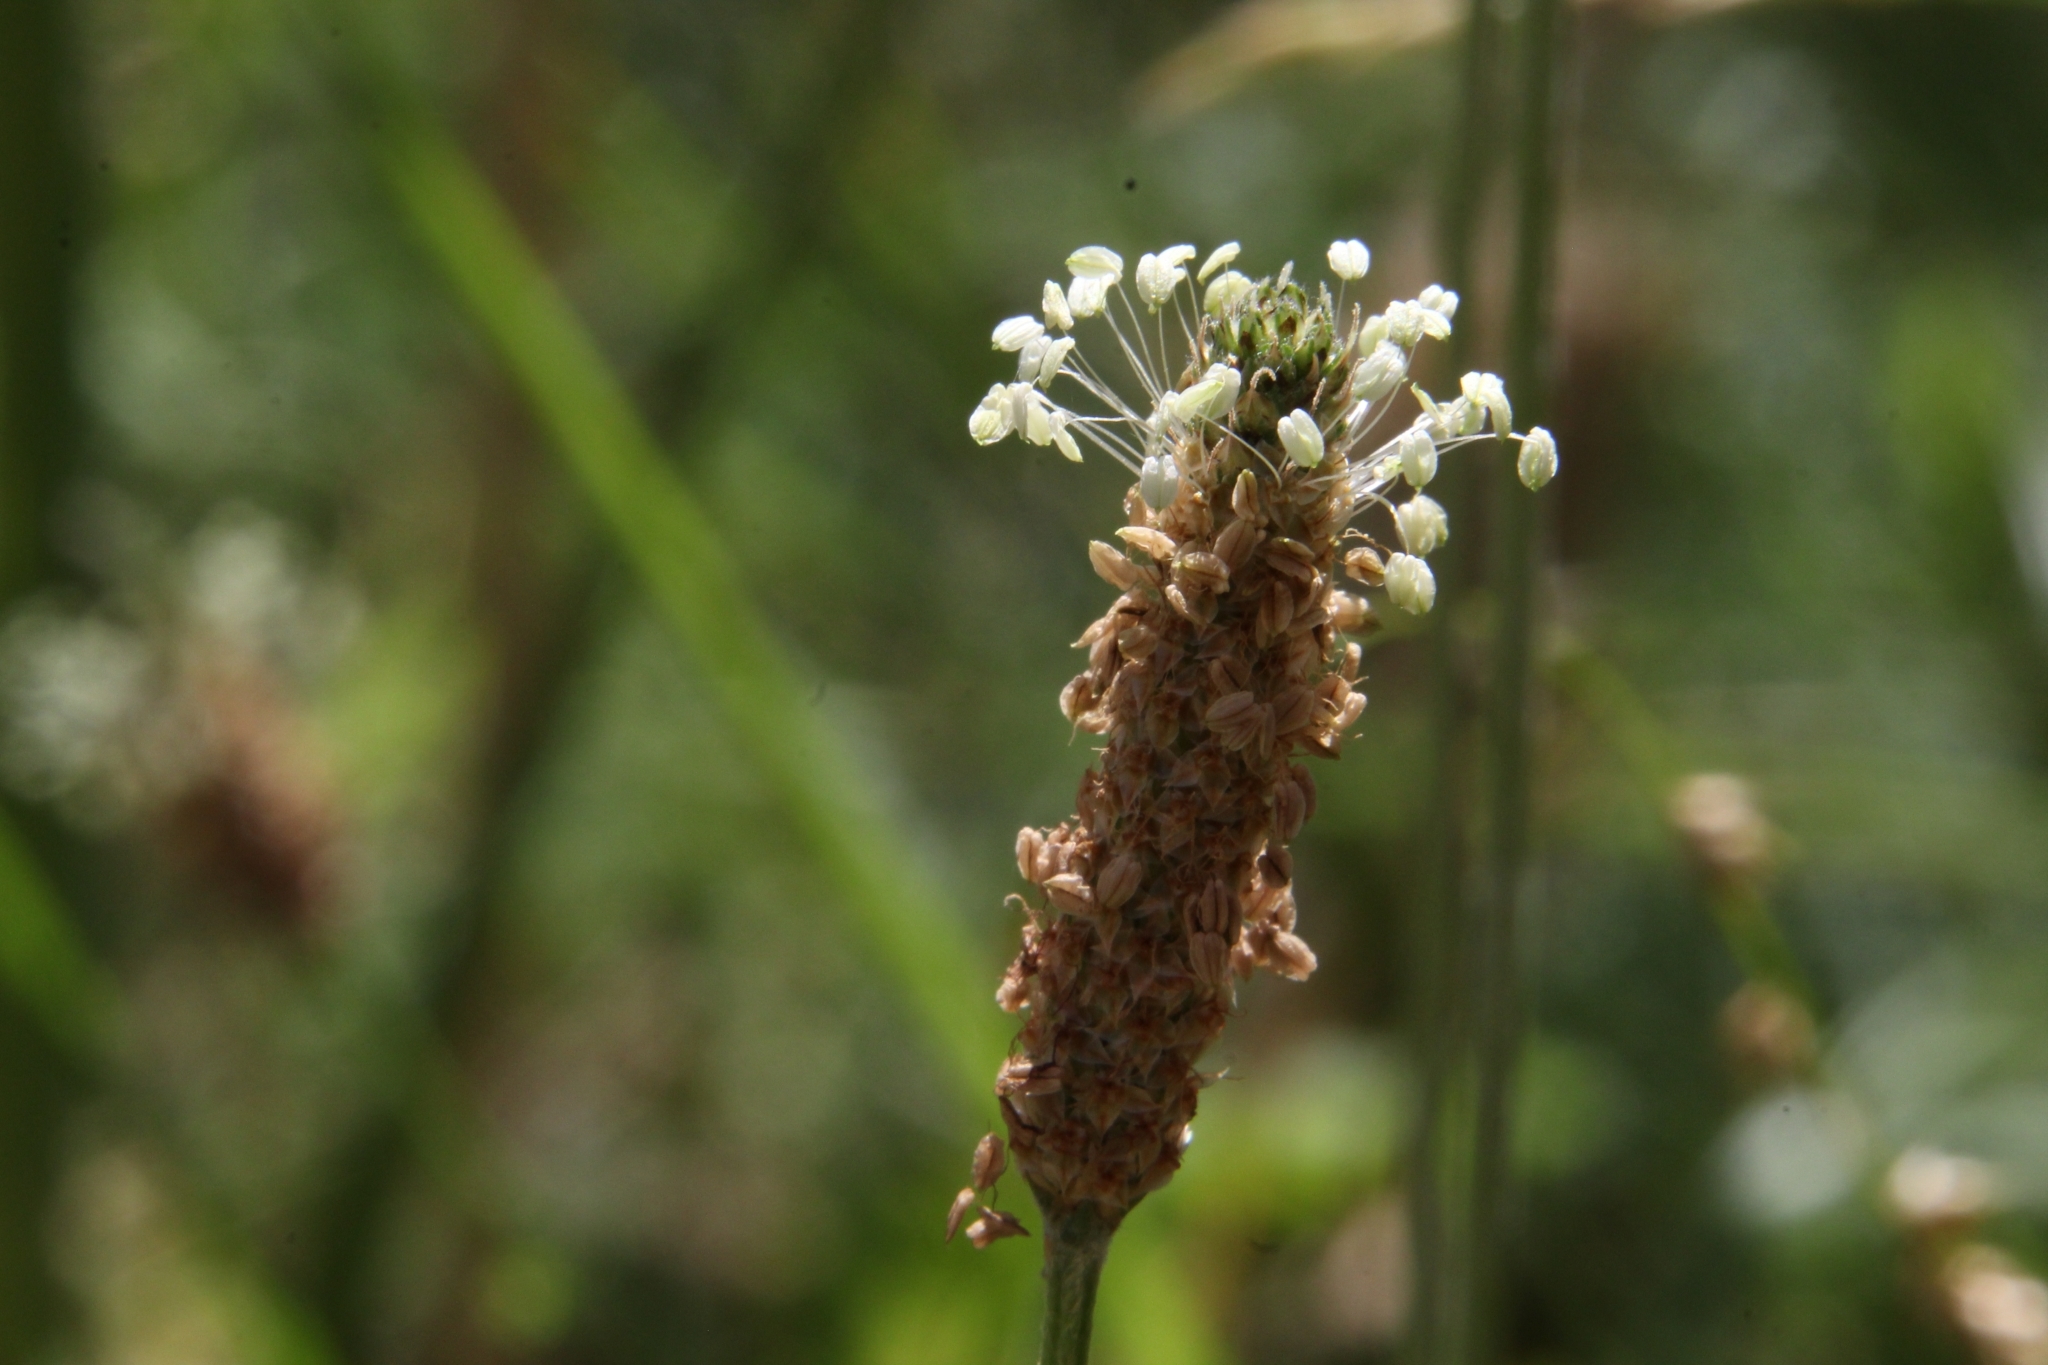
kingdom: Plantae
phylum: Tracheophyta
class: Magnoliopsida
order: Lamiales
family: Plantaginaceae
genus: Plantago
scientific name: Plantago lanceolata
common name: Ribwort plantain
